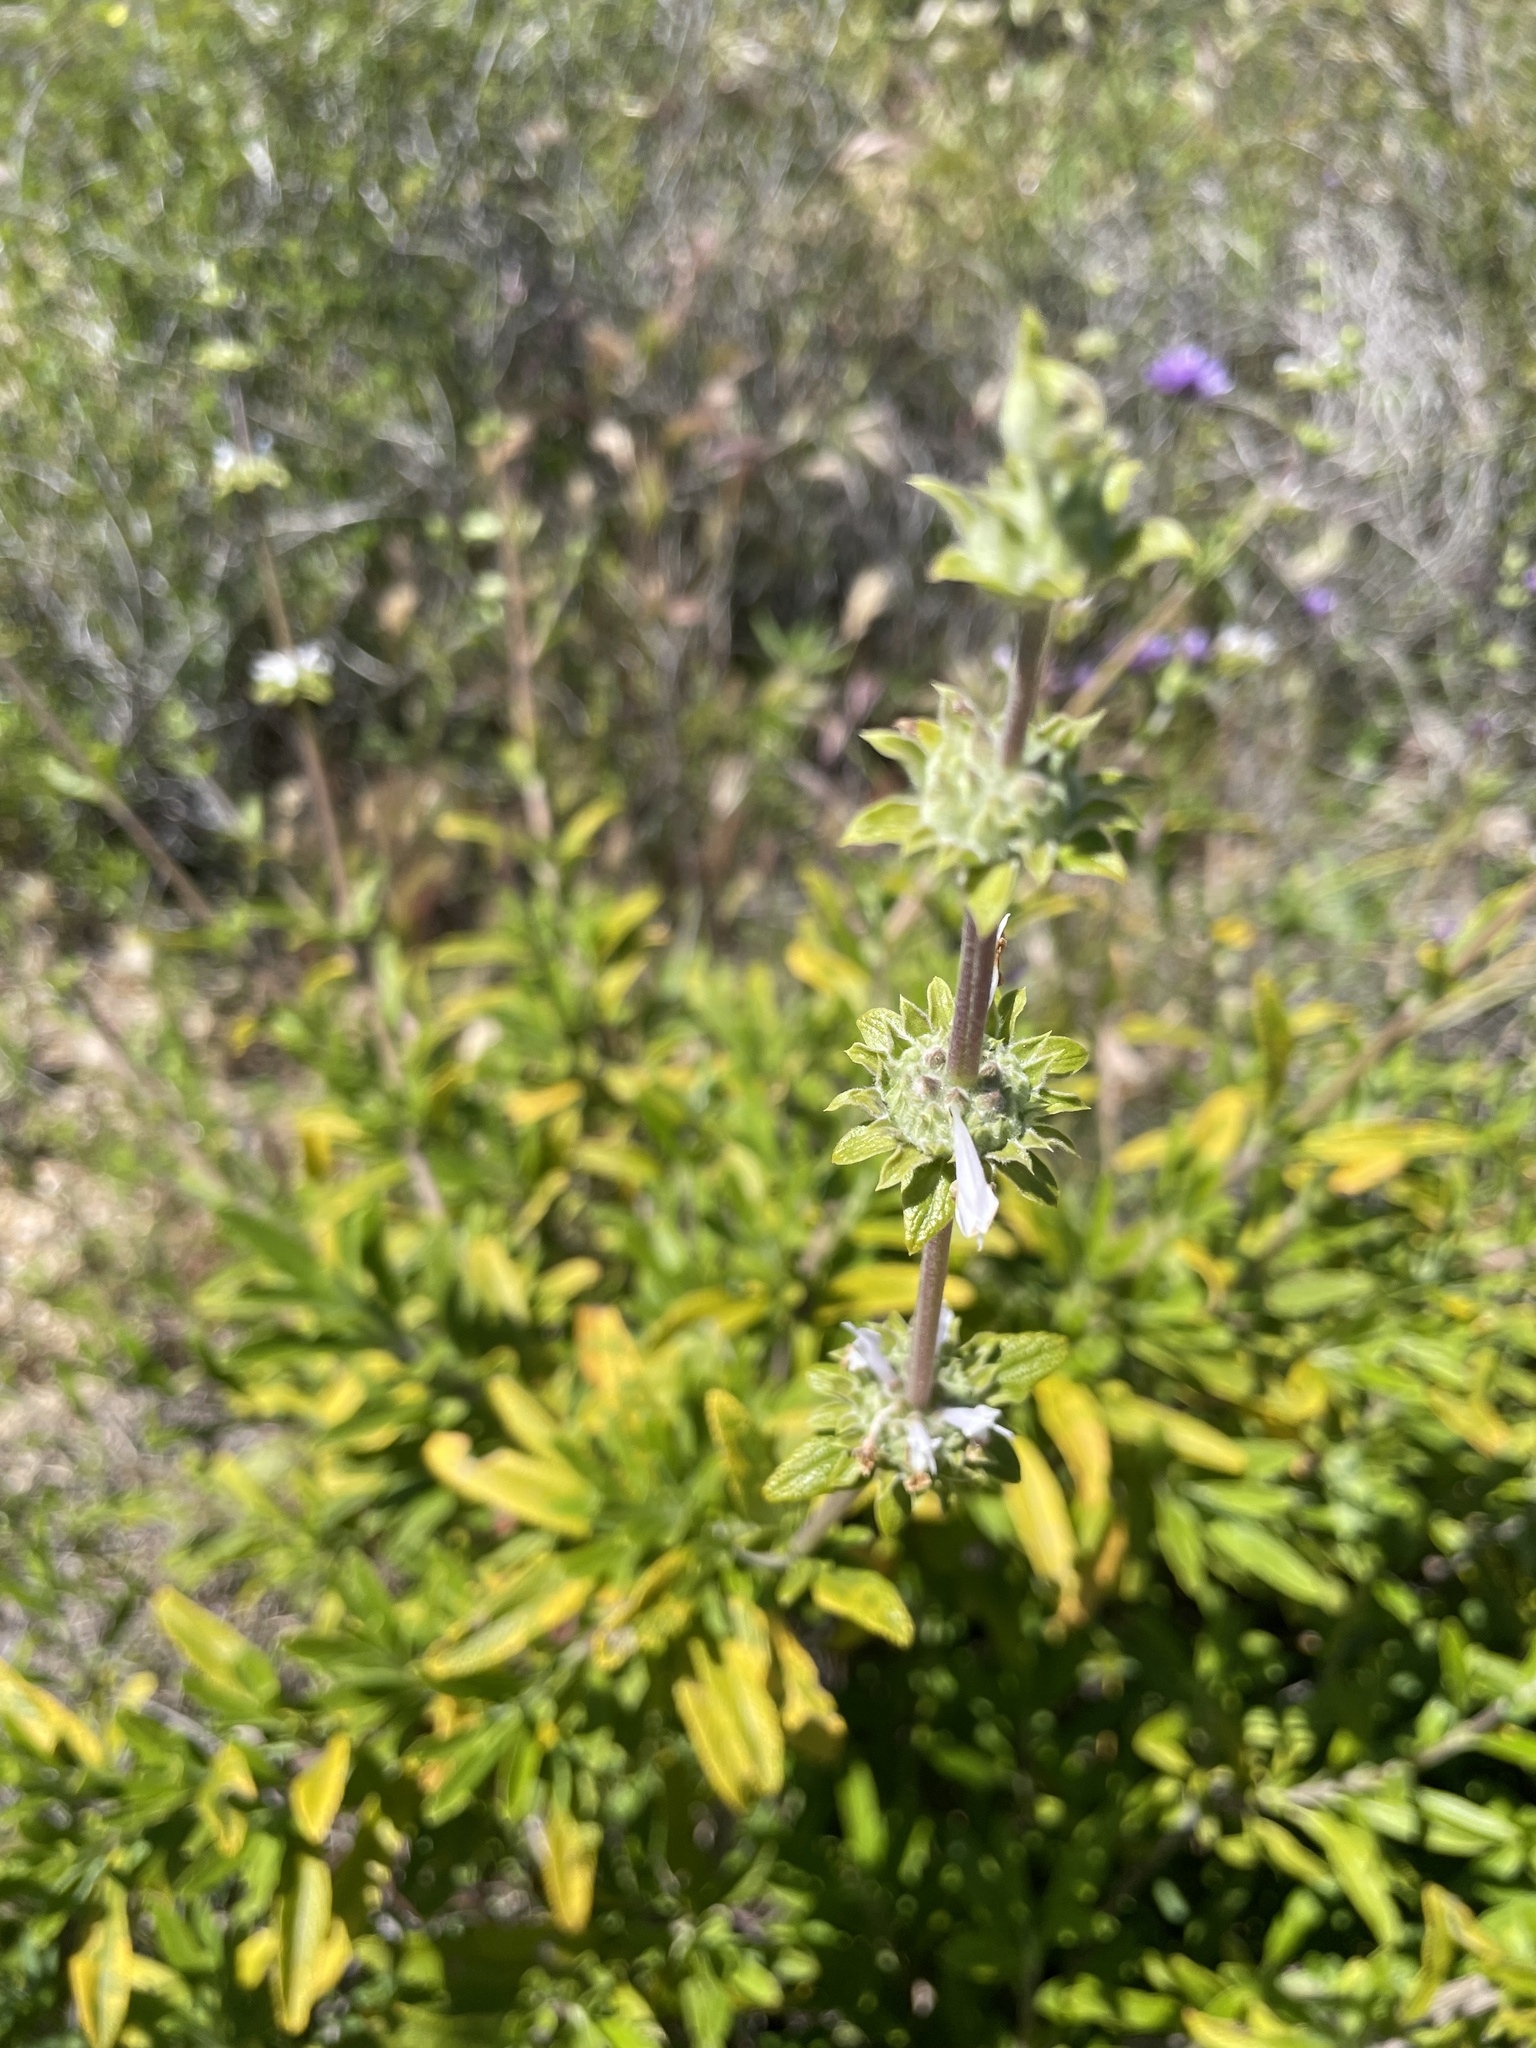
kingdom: Plantae
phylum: Tracheophyta
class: Magnoliopsida
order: Lamiales
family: Lamiaceae
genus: Salvia
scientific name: Salvia mellifera
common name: Black sage
